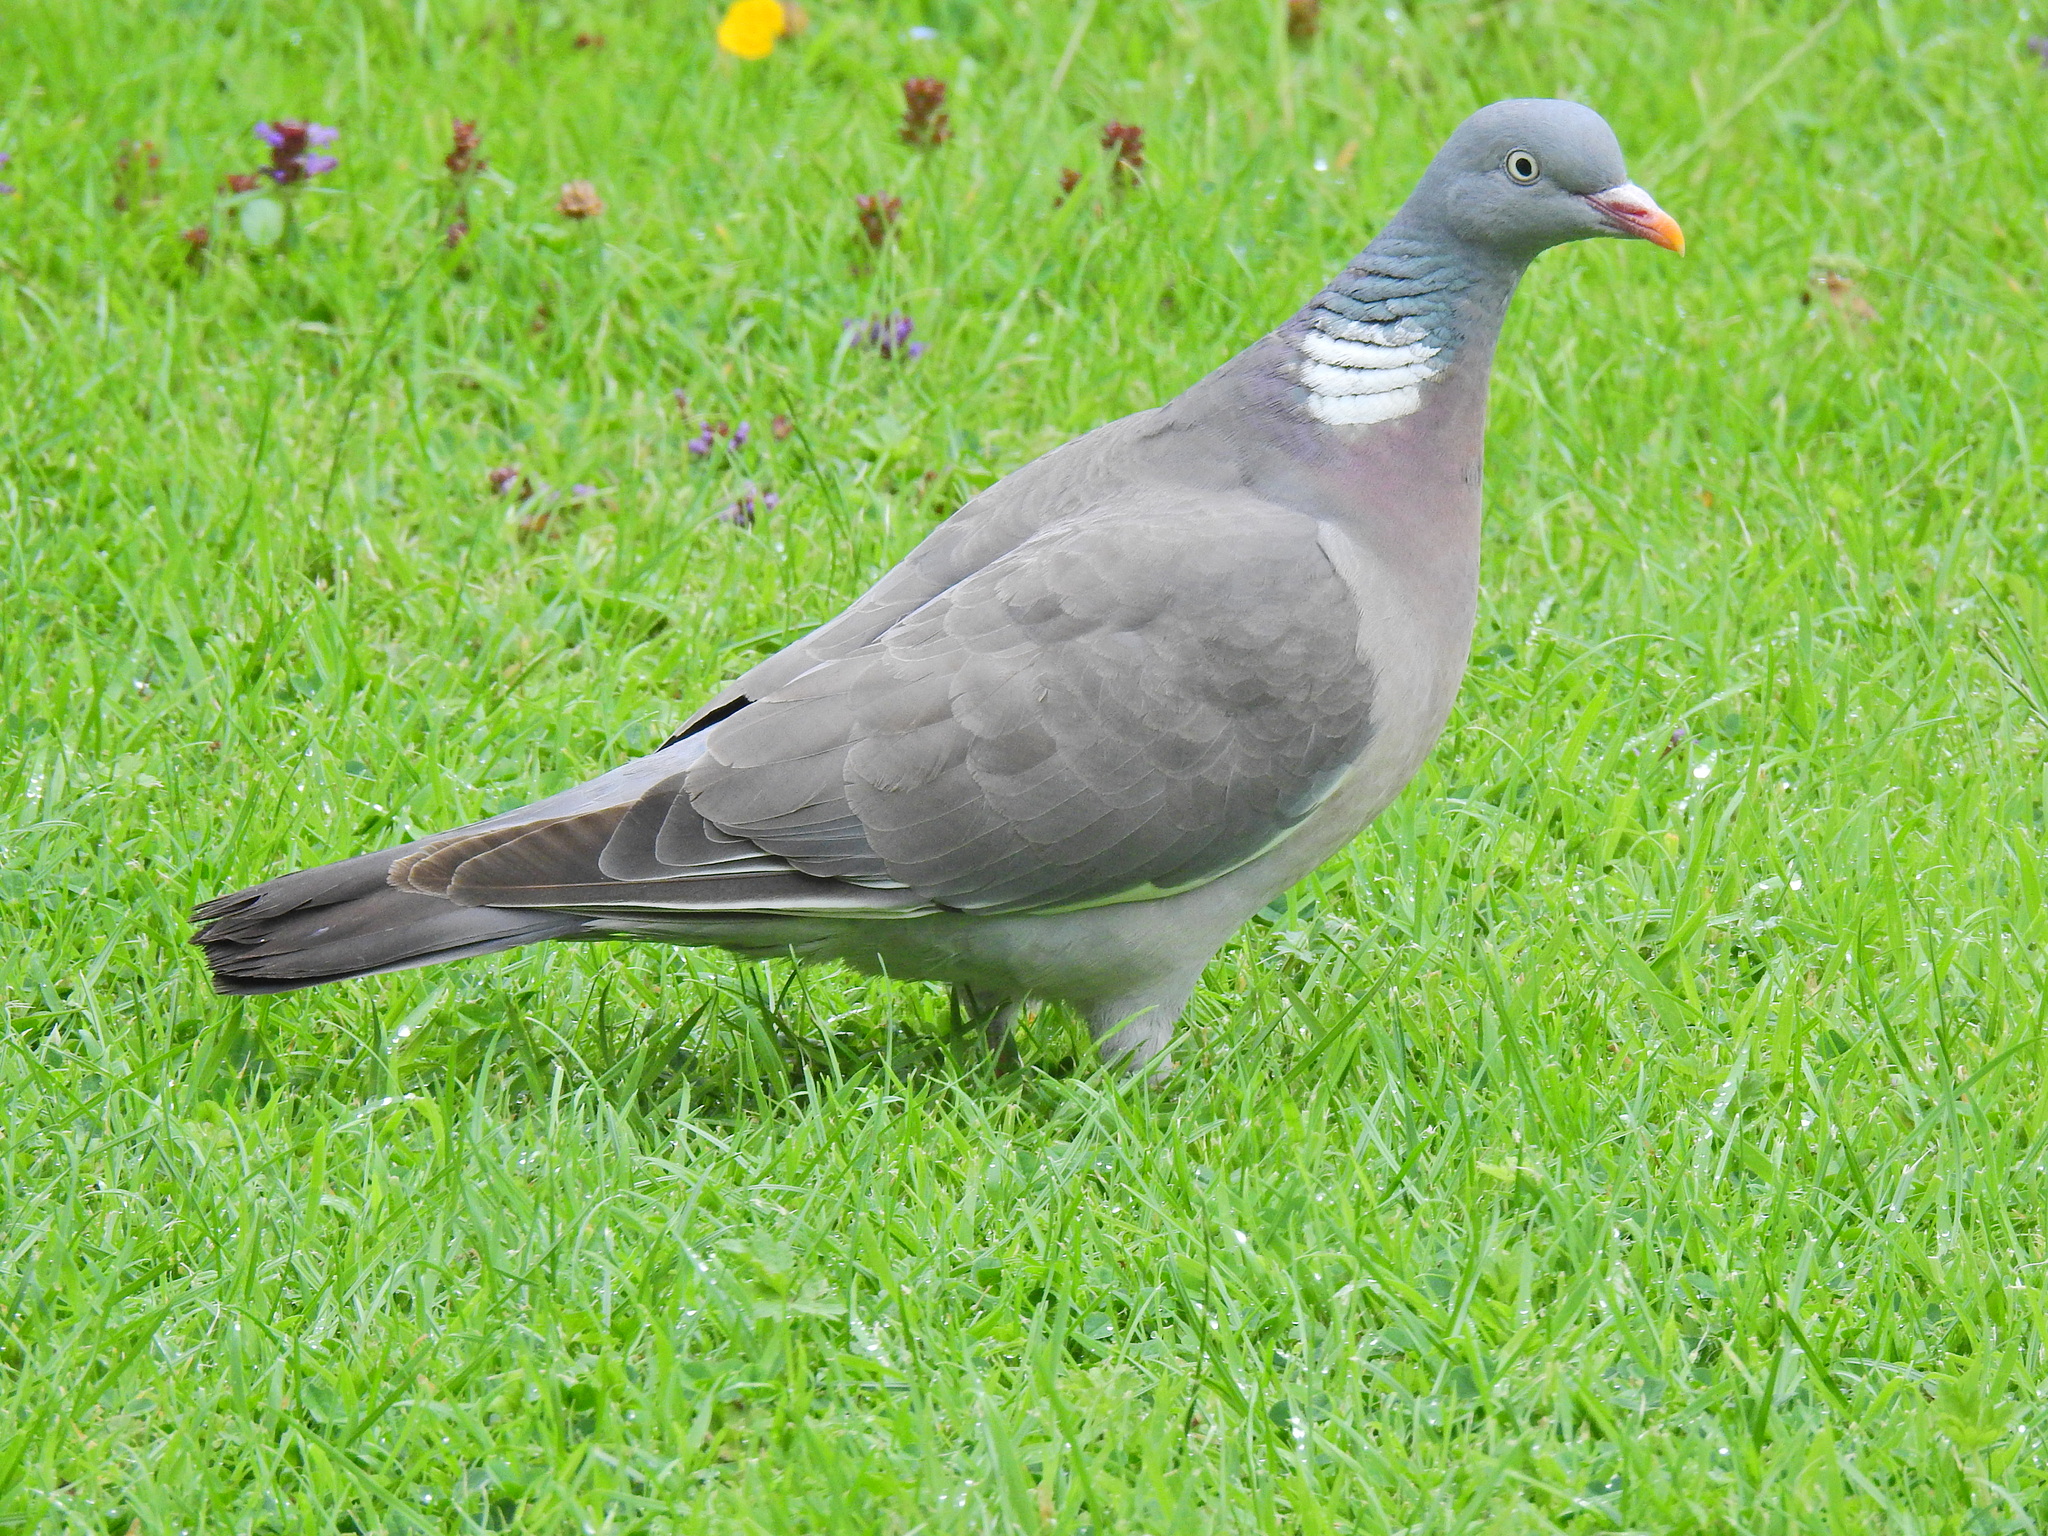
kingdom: Animalia
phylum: Chordata
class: Aves
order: Columbiformes
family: Columbidae
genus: Columba
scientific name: Columba palumbus
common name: Common wood pigeon
